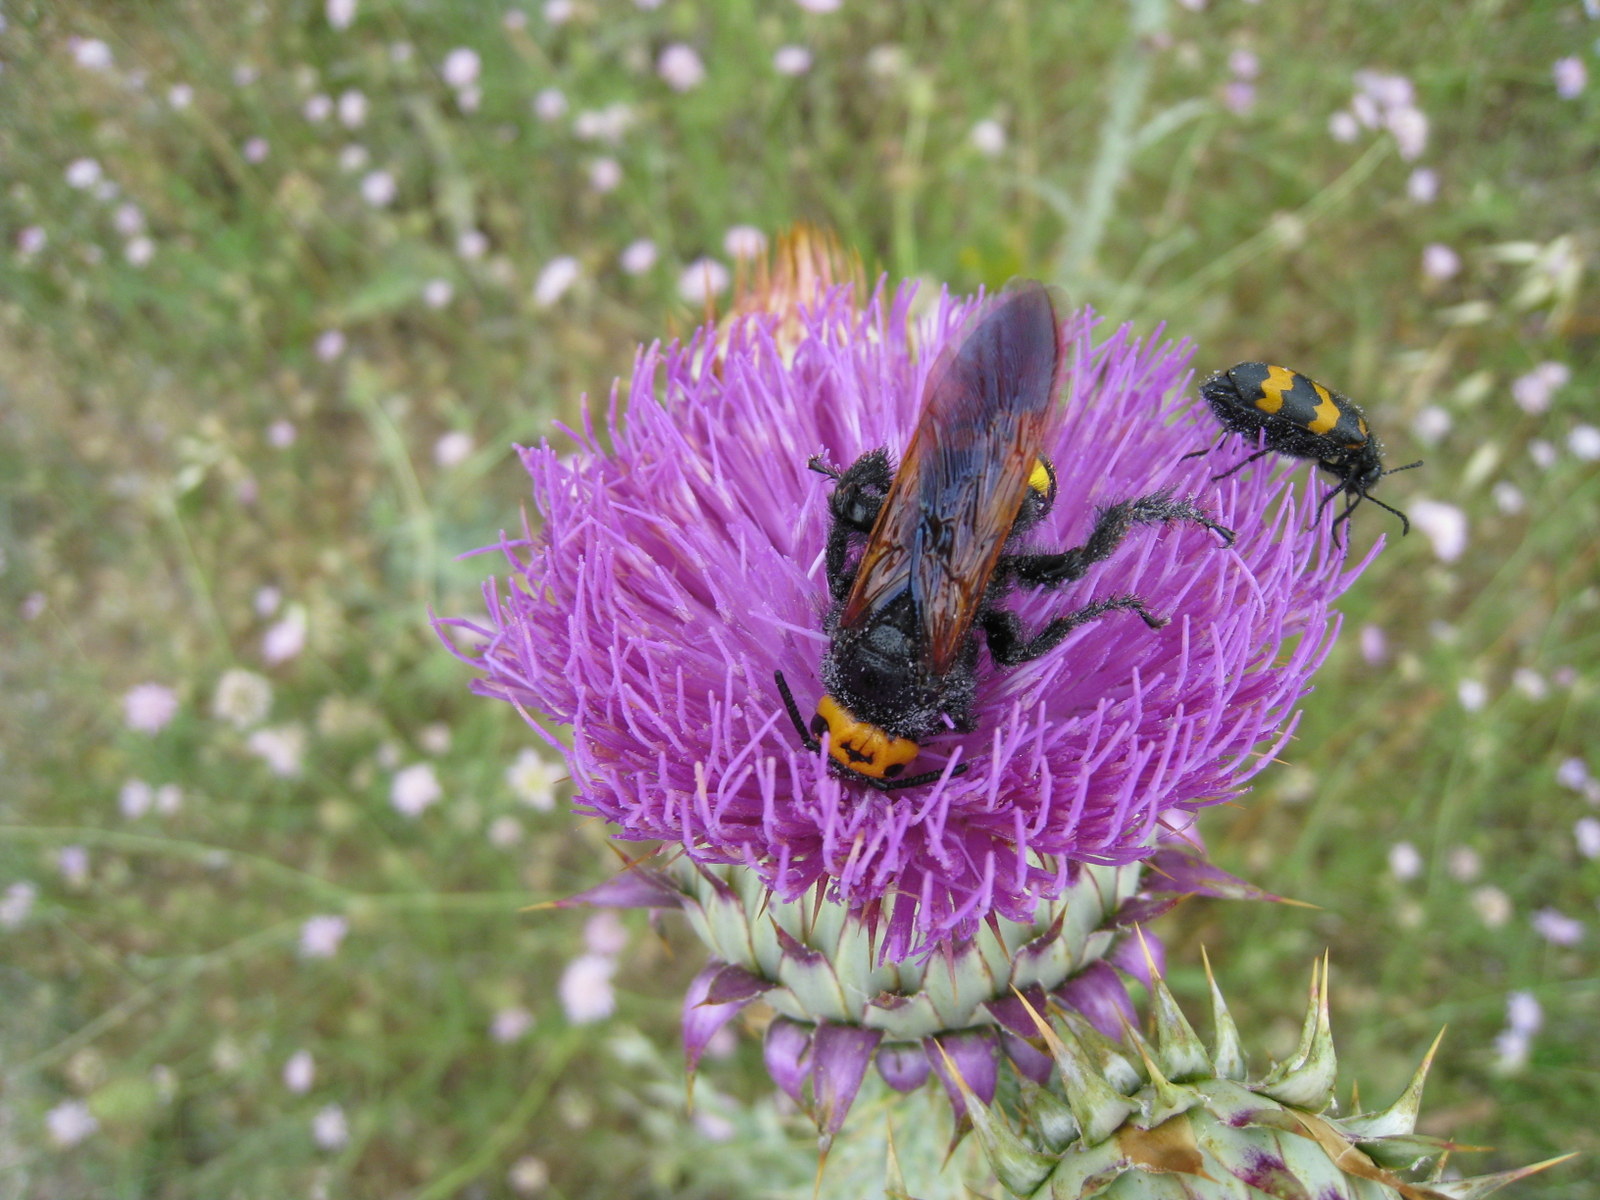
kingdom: Animalia
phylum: Arthropoda
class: Insecta
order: Hymenoptera
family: Scoliidae
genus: Megascolia
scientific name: Megascolia maculata
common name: Mammoth wasp
